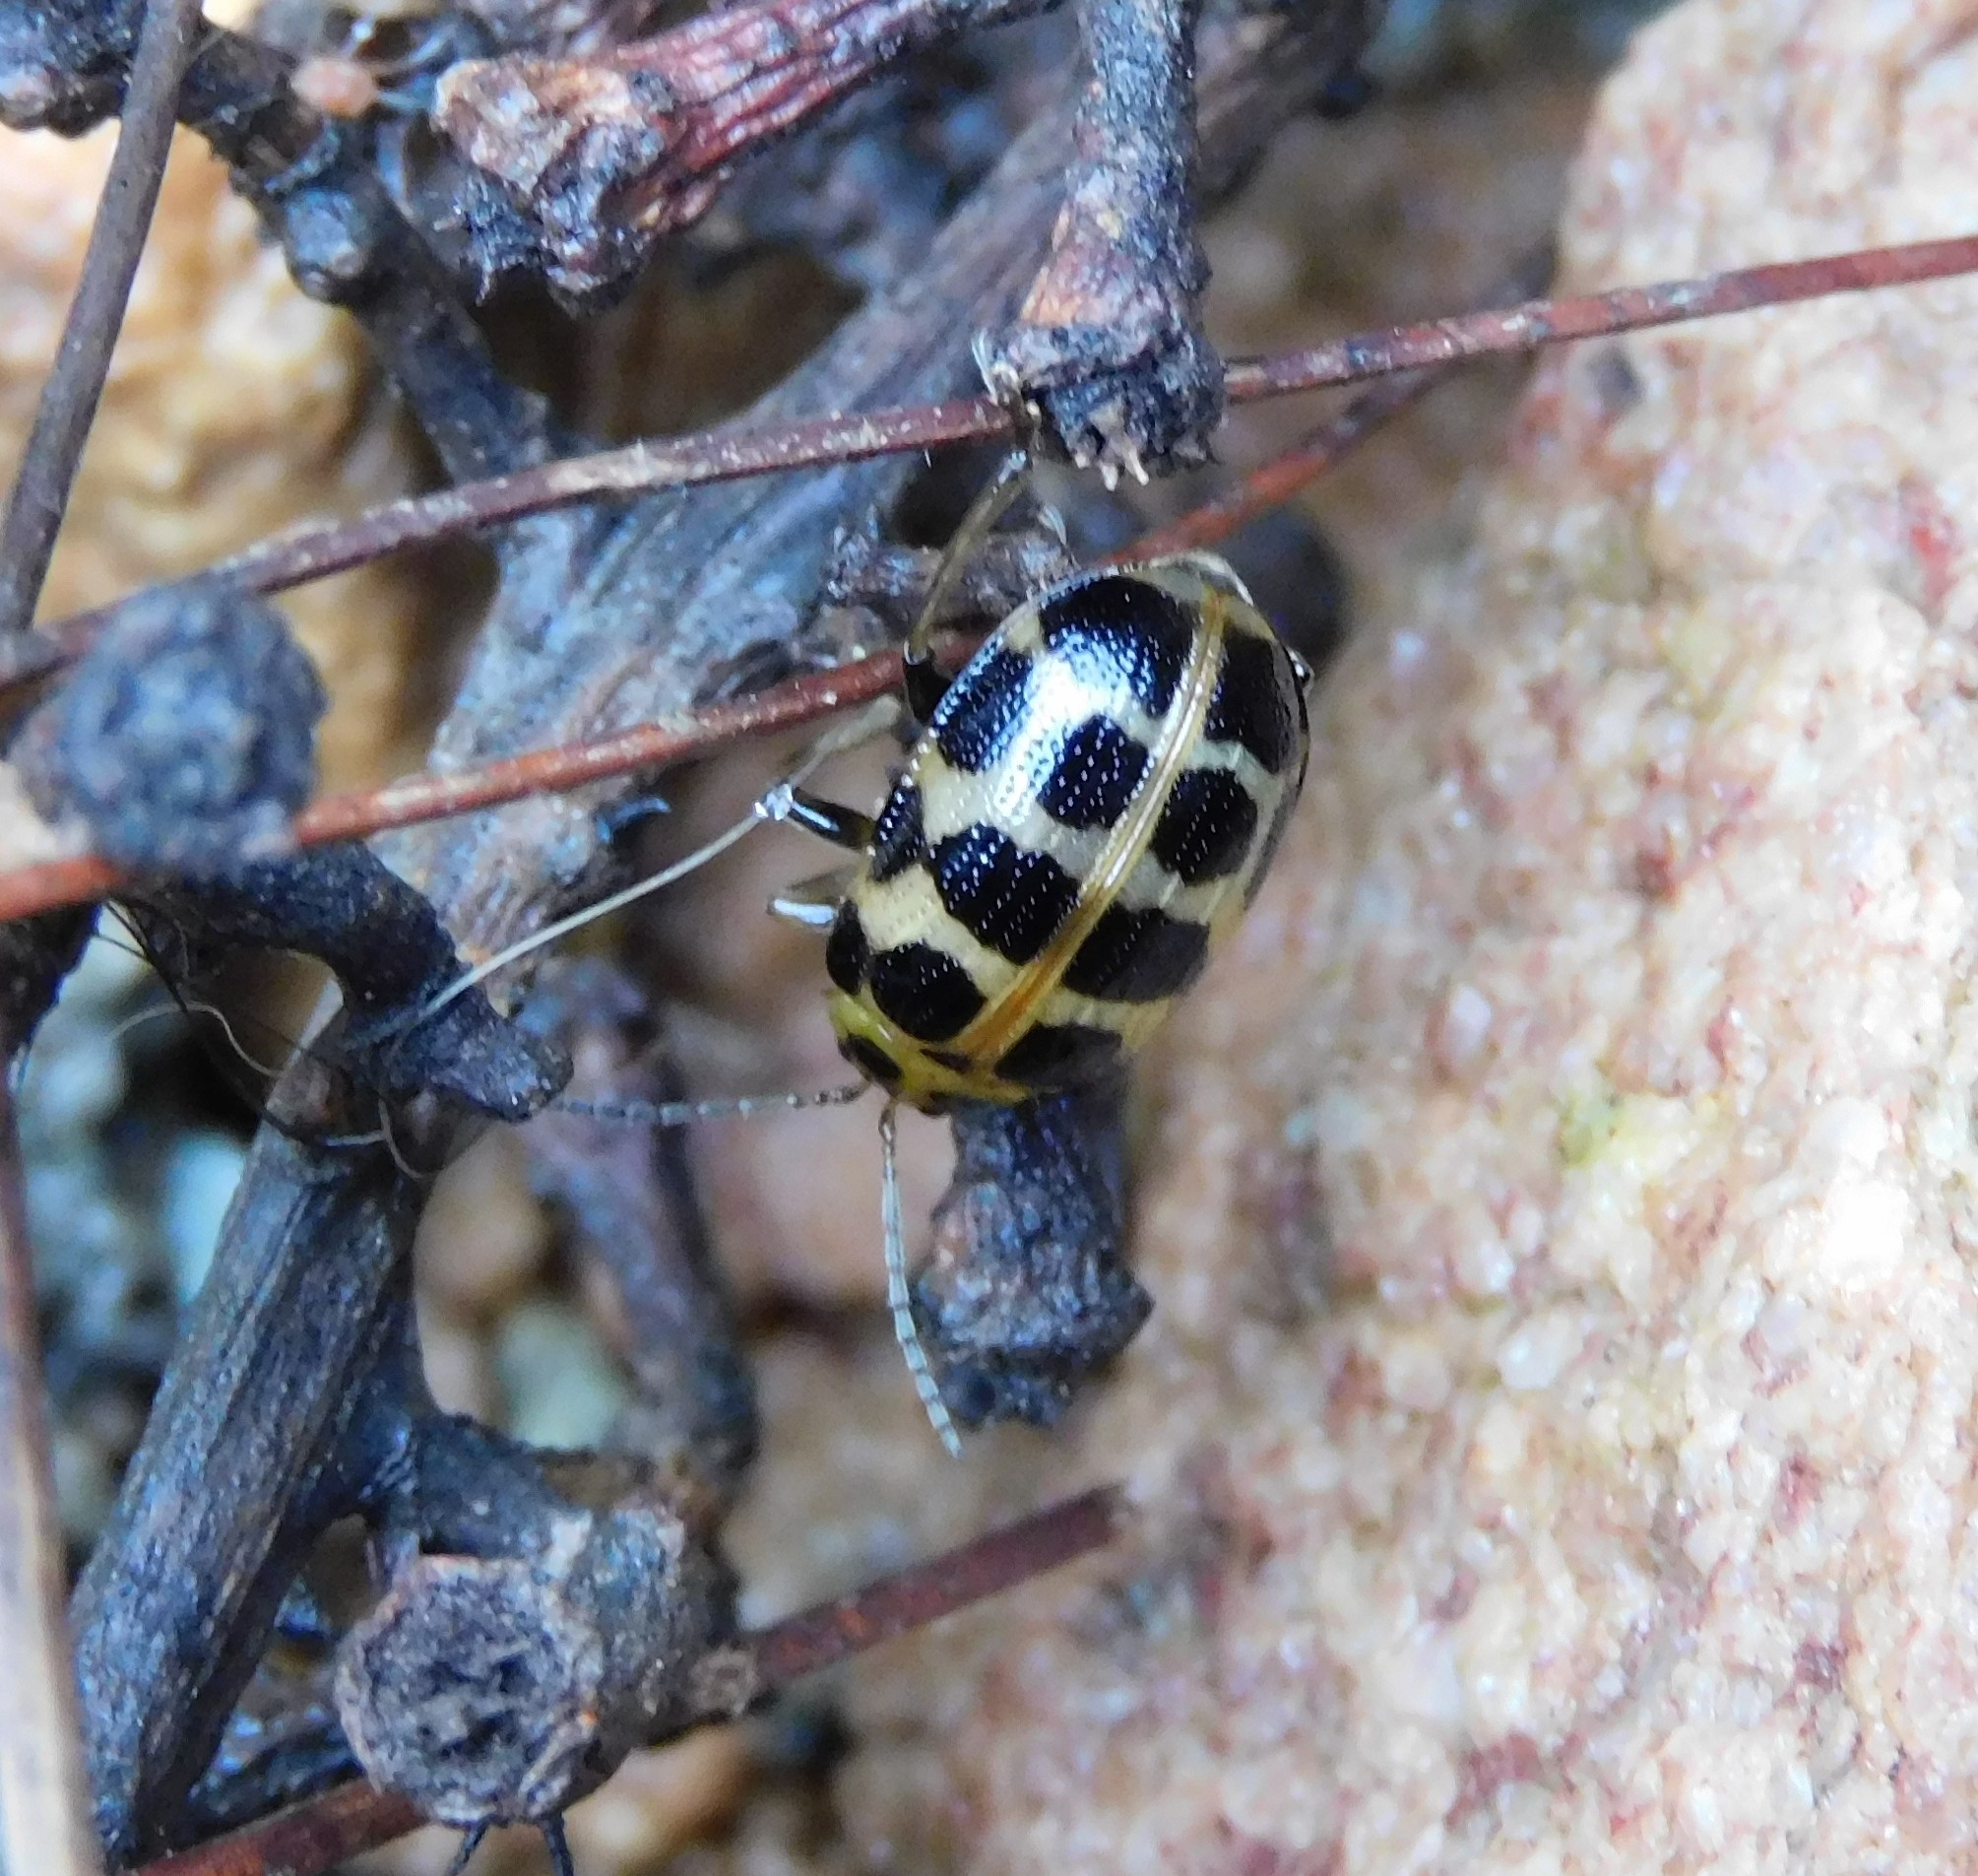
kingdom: Animalia
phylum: Arthropoda
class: Insecta
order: Coleoptera
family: Chrysomelidae
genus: Sphenoraia
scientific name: Sphenoraia
